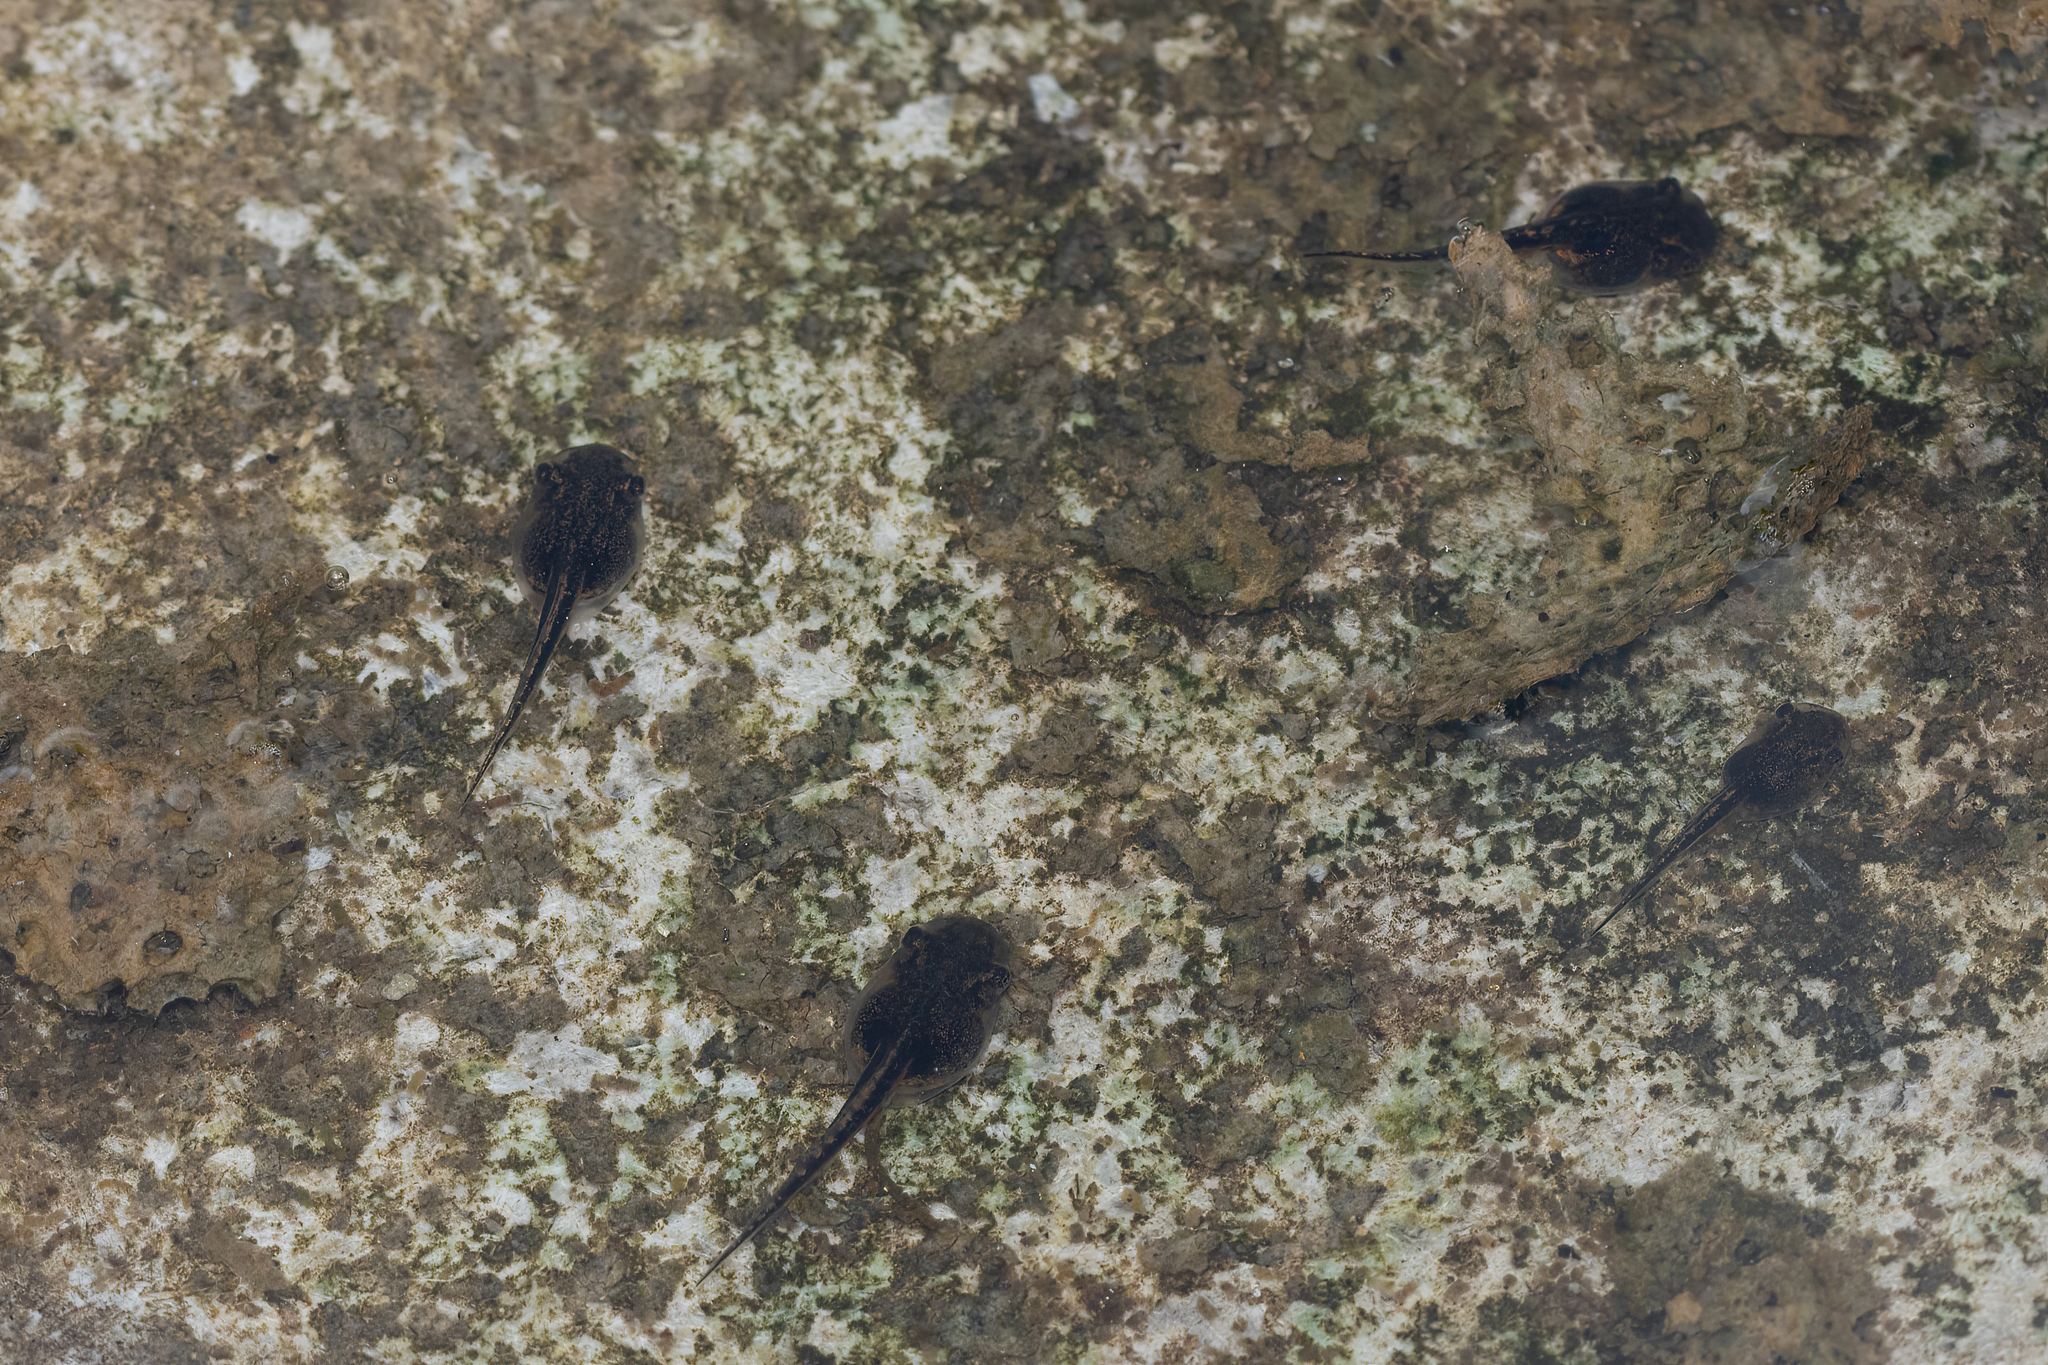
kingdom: Animalia
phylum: Chordata
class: Amphibia
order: Anura
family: Hylidae
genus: Osteopilus
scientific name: Osteopilus septentrionalis
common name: Cuban treefrog
